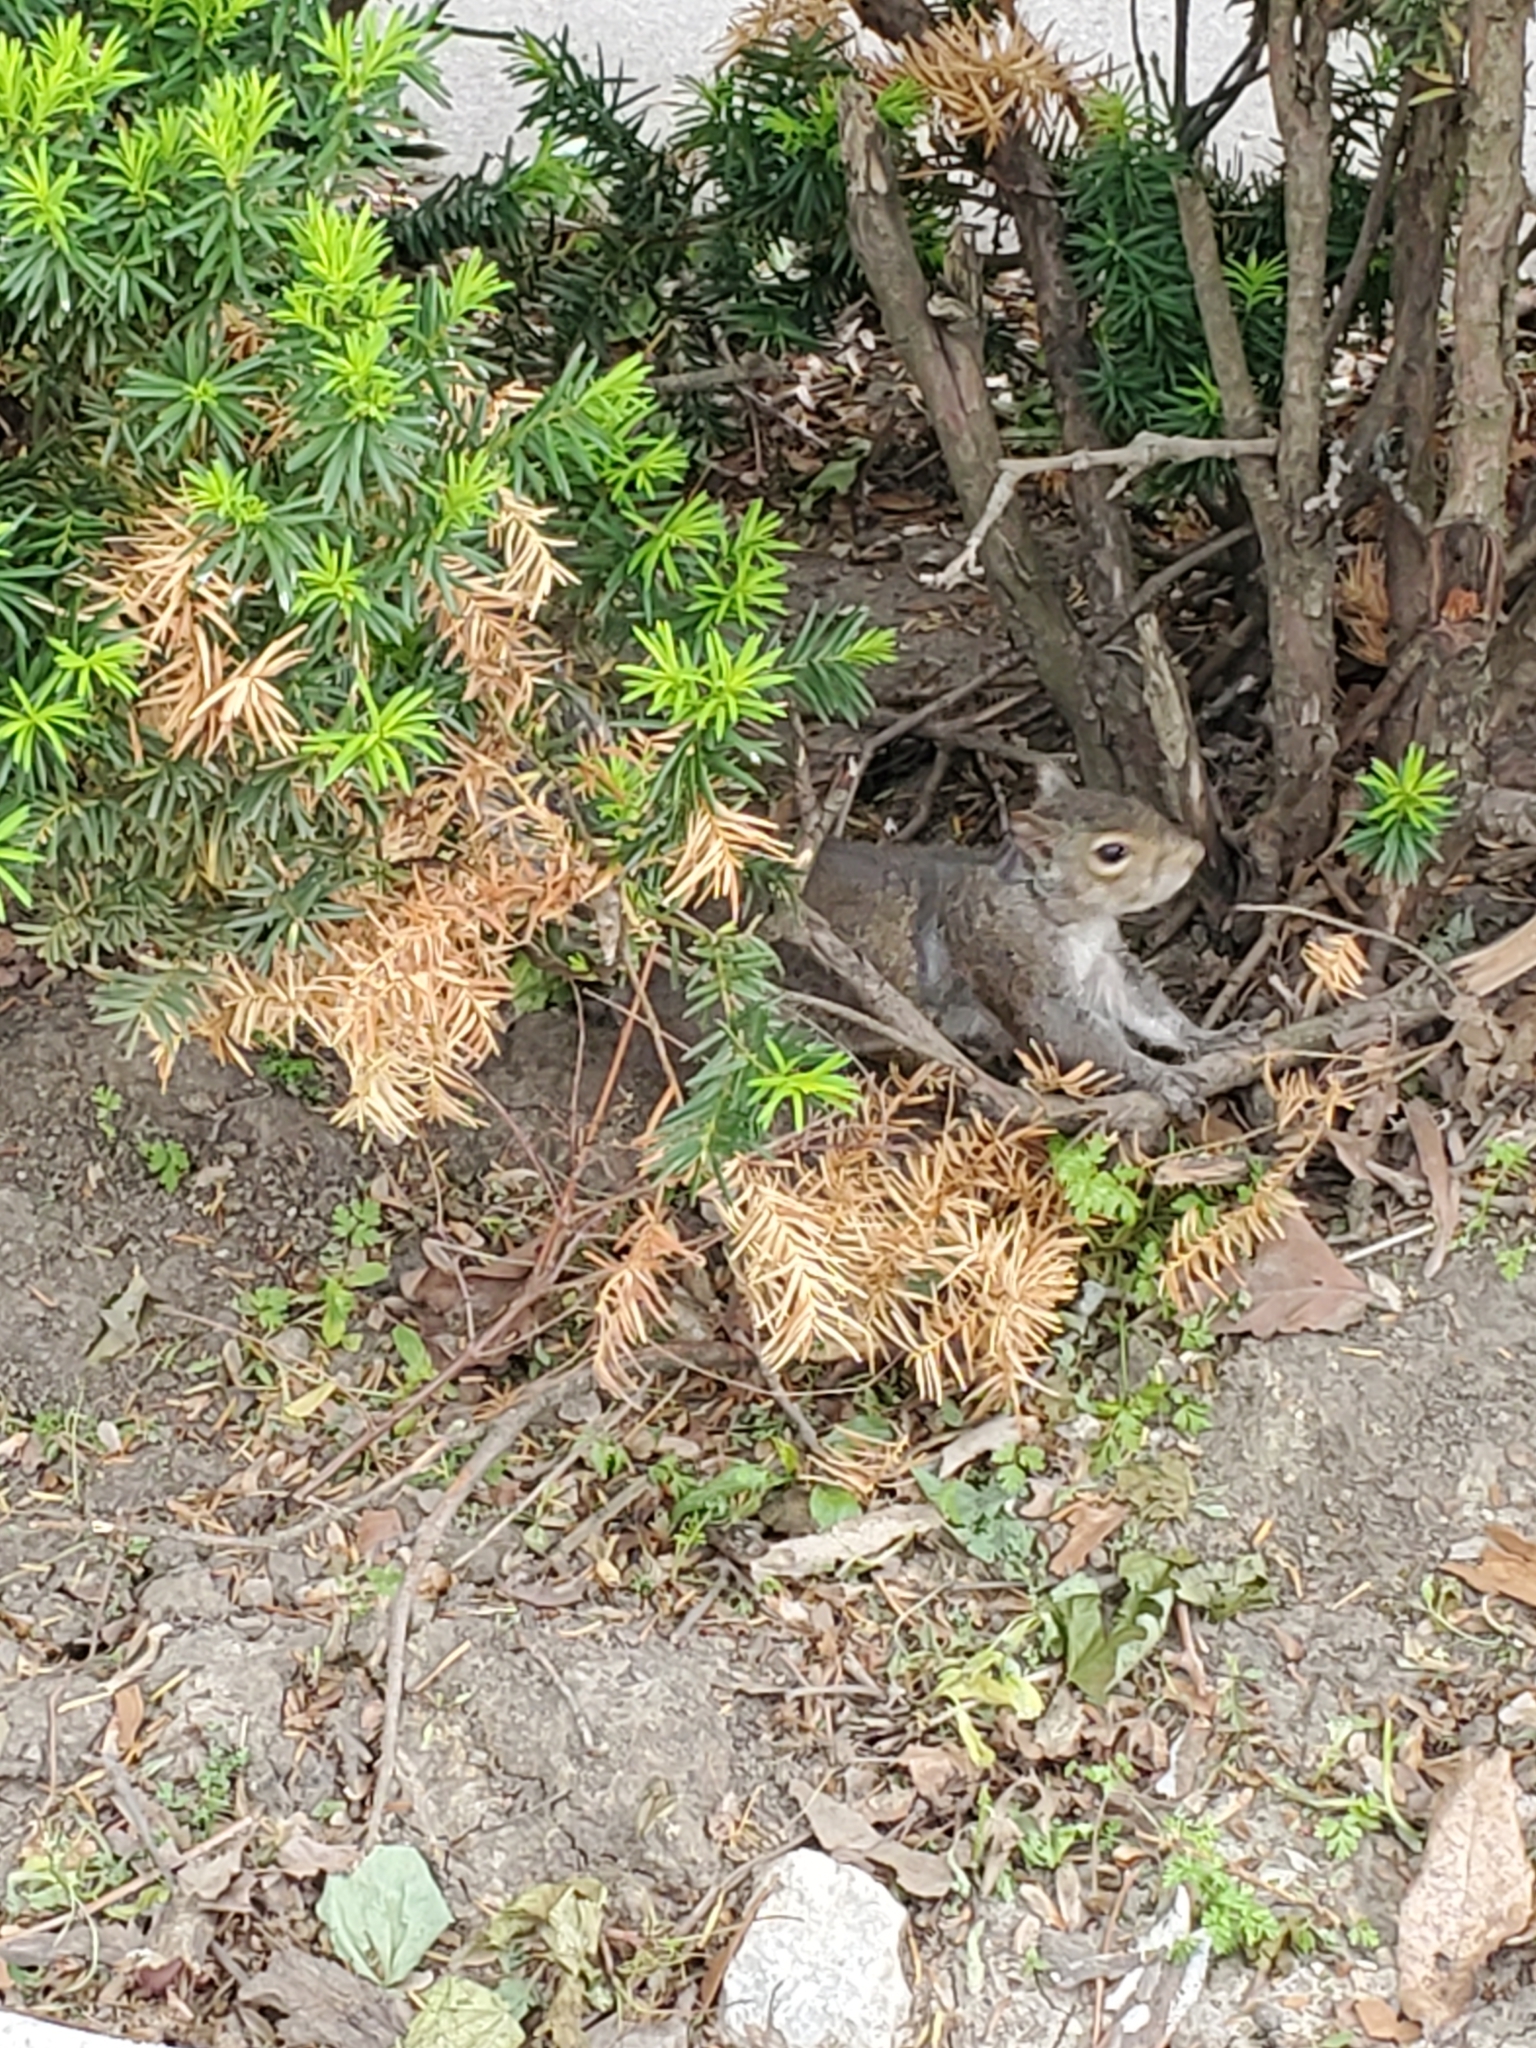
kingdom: Animalia
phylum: Chordata
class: Mammalia
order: Rodentia
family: Sciuridae
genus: Sciurus
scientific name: Sciurus carolinensis
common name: Eastern gray squirrel
